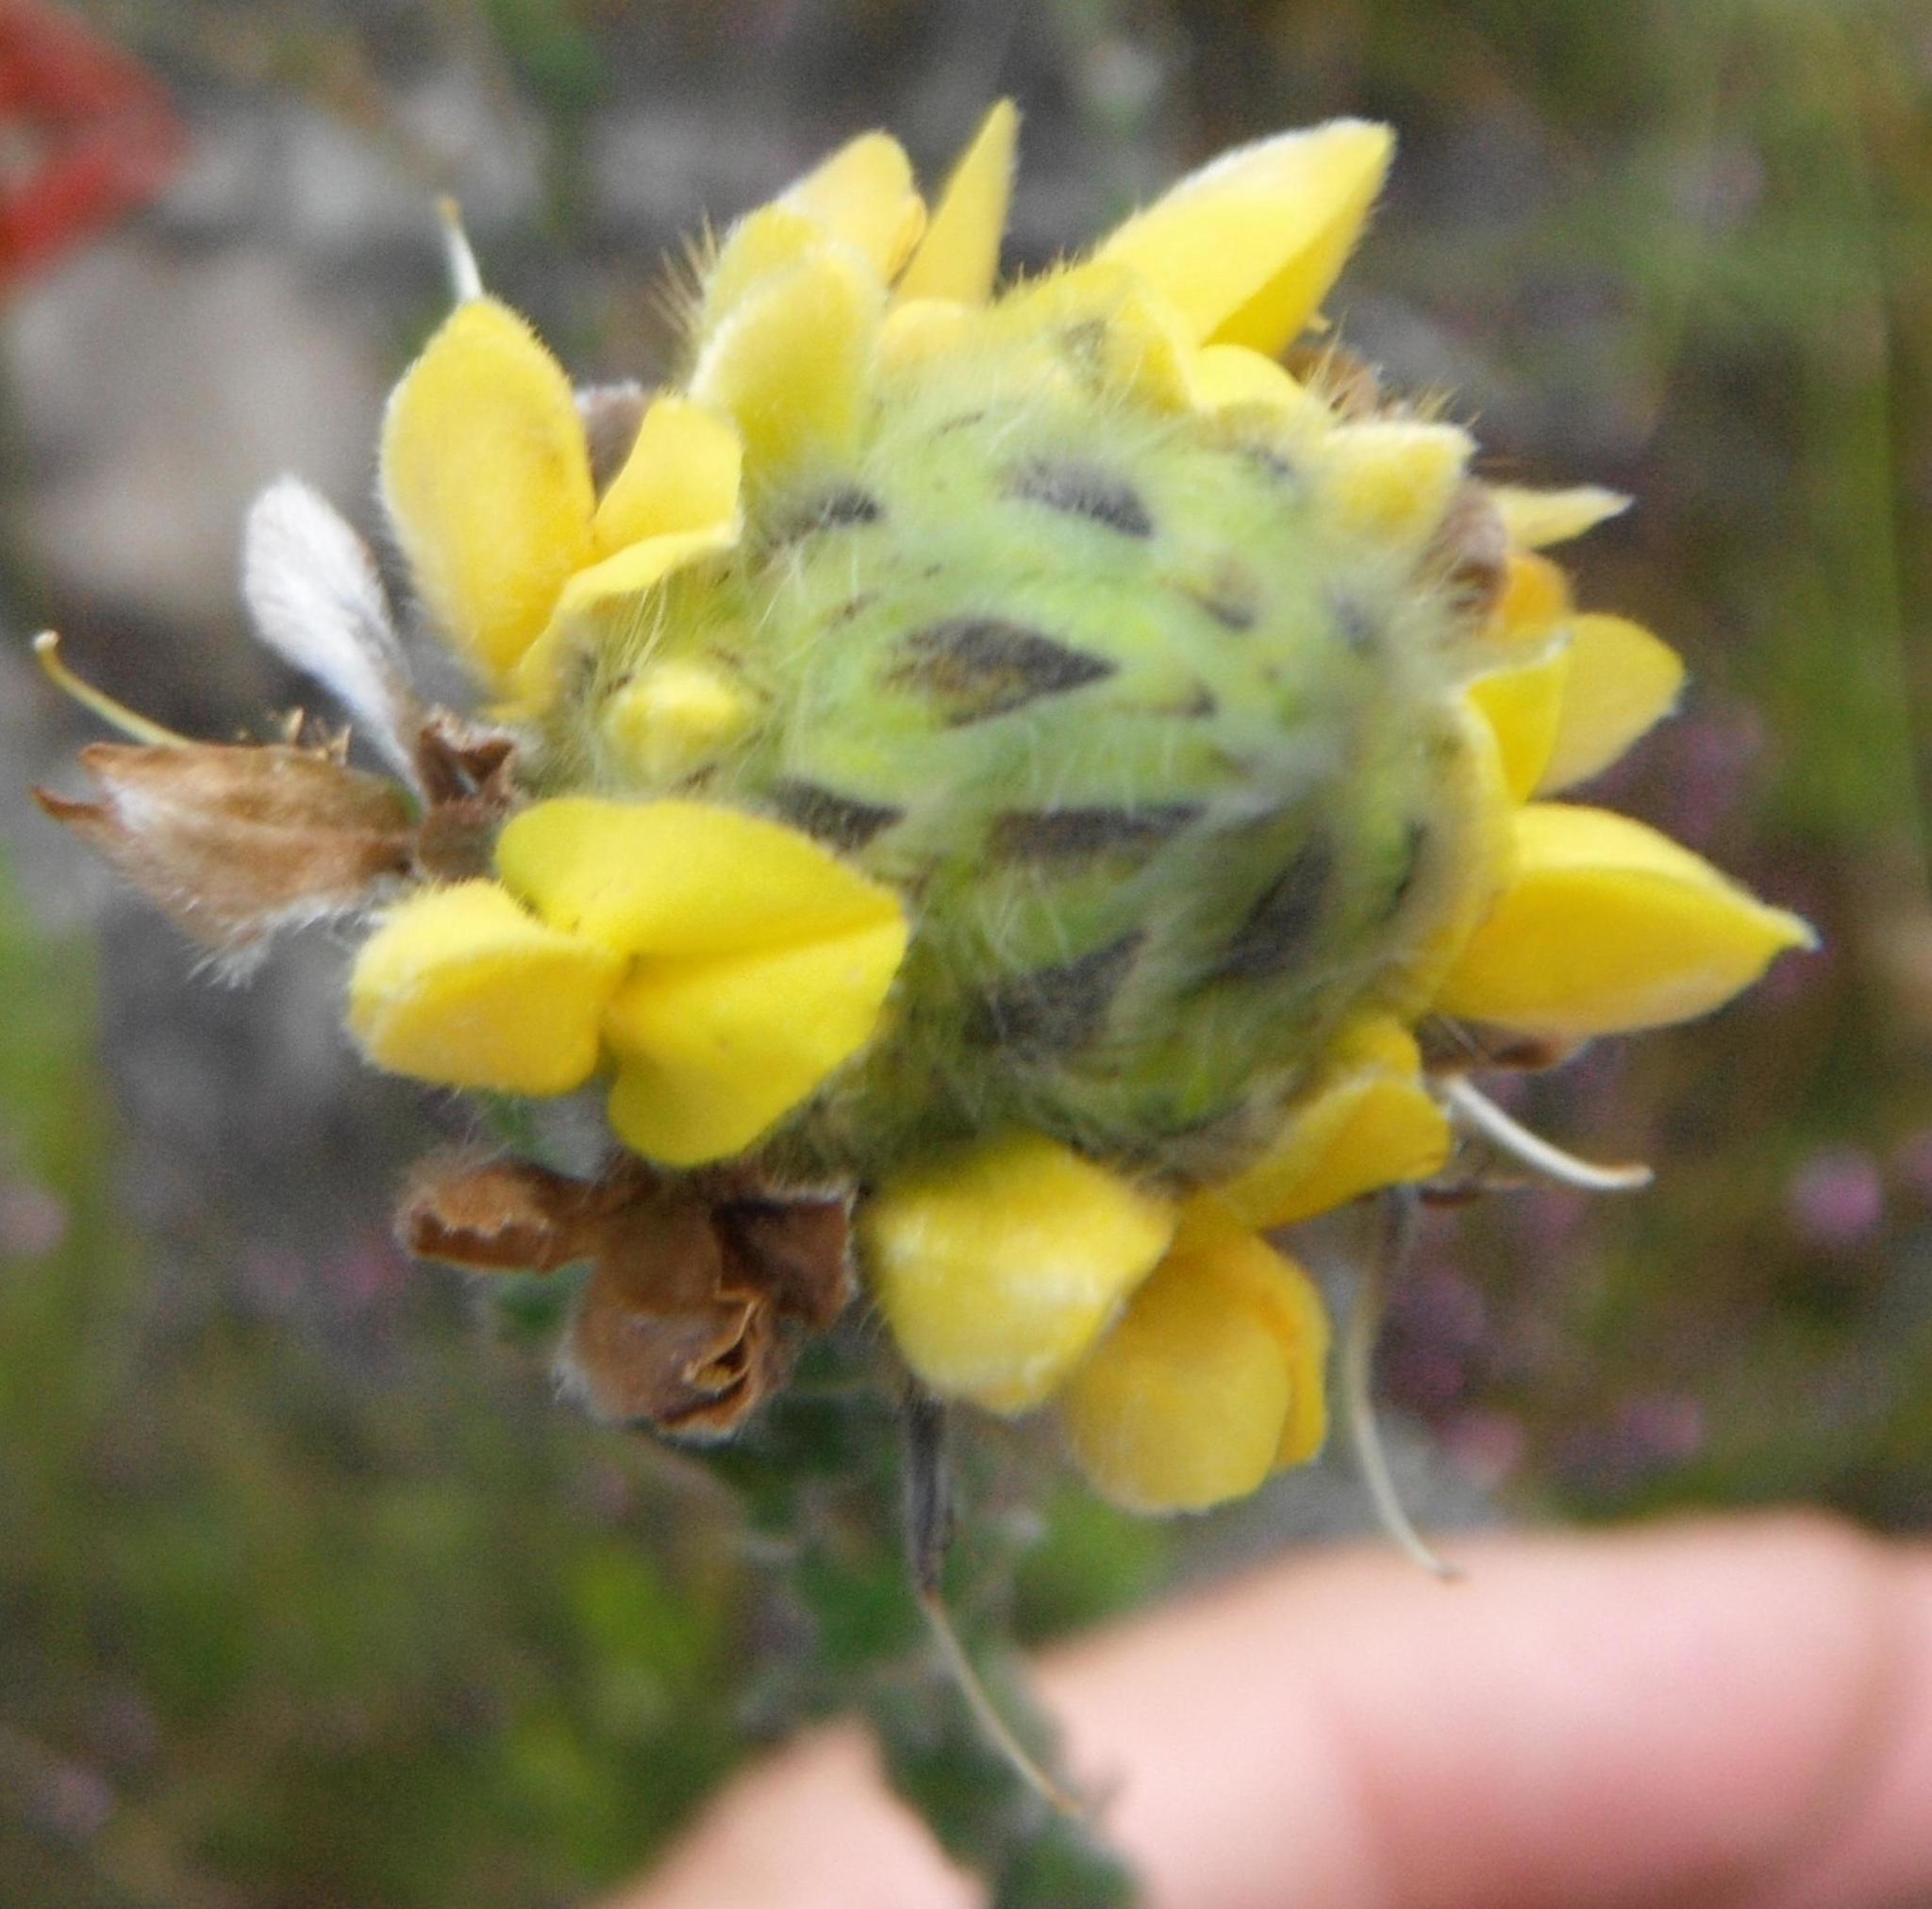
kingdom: Plantae
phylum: Tracheophyta
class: Magnoliopsida
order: Fabales
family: Fabaceae
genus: Aspalathus
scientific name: Aspalathus sericea
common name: Silky pea
